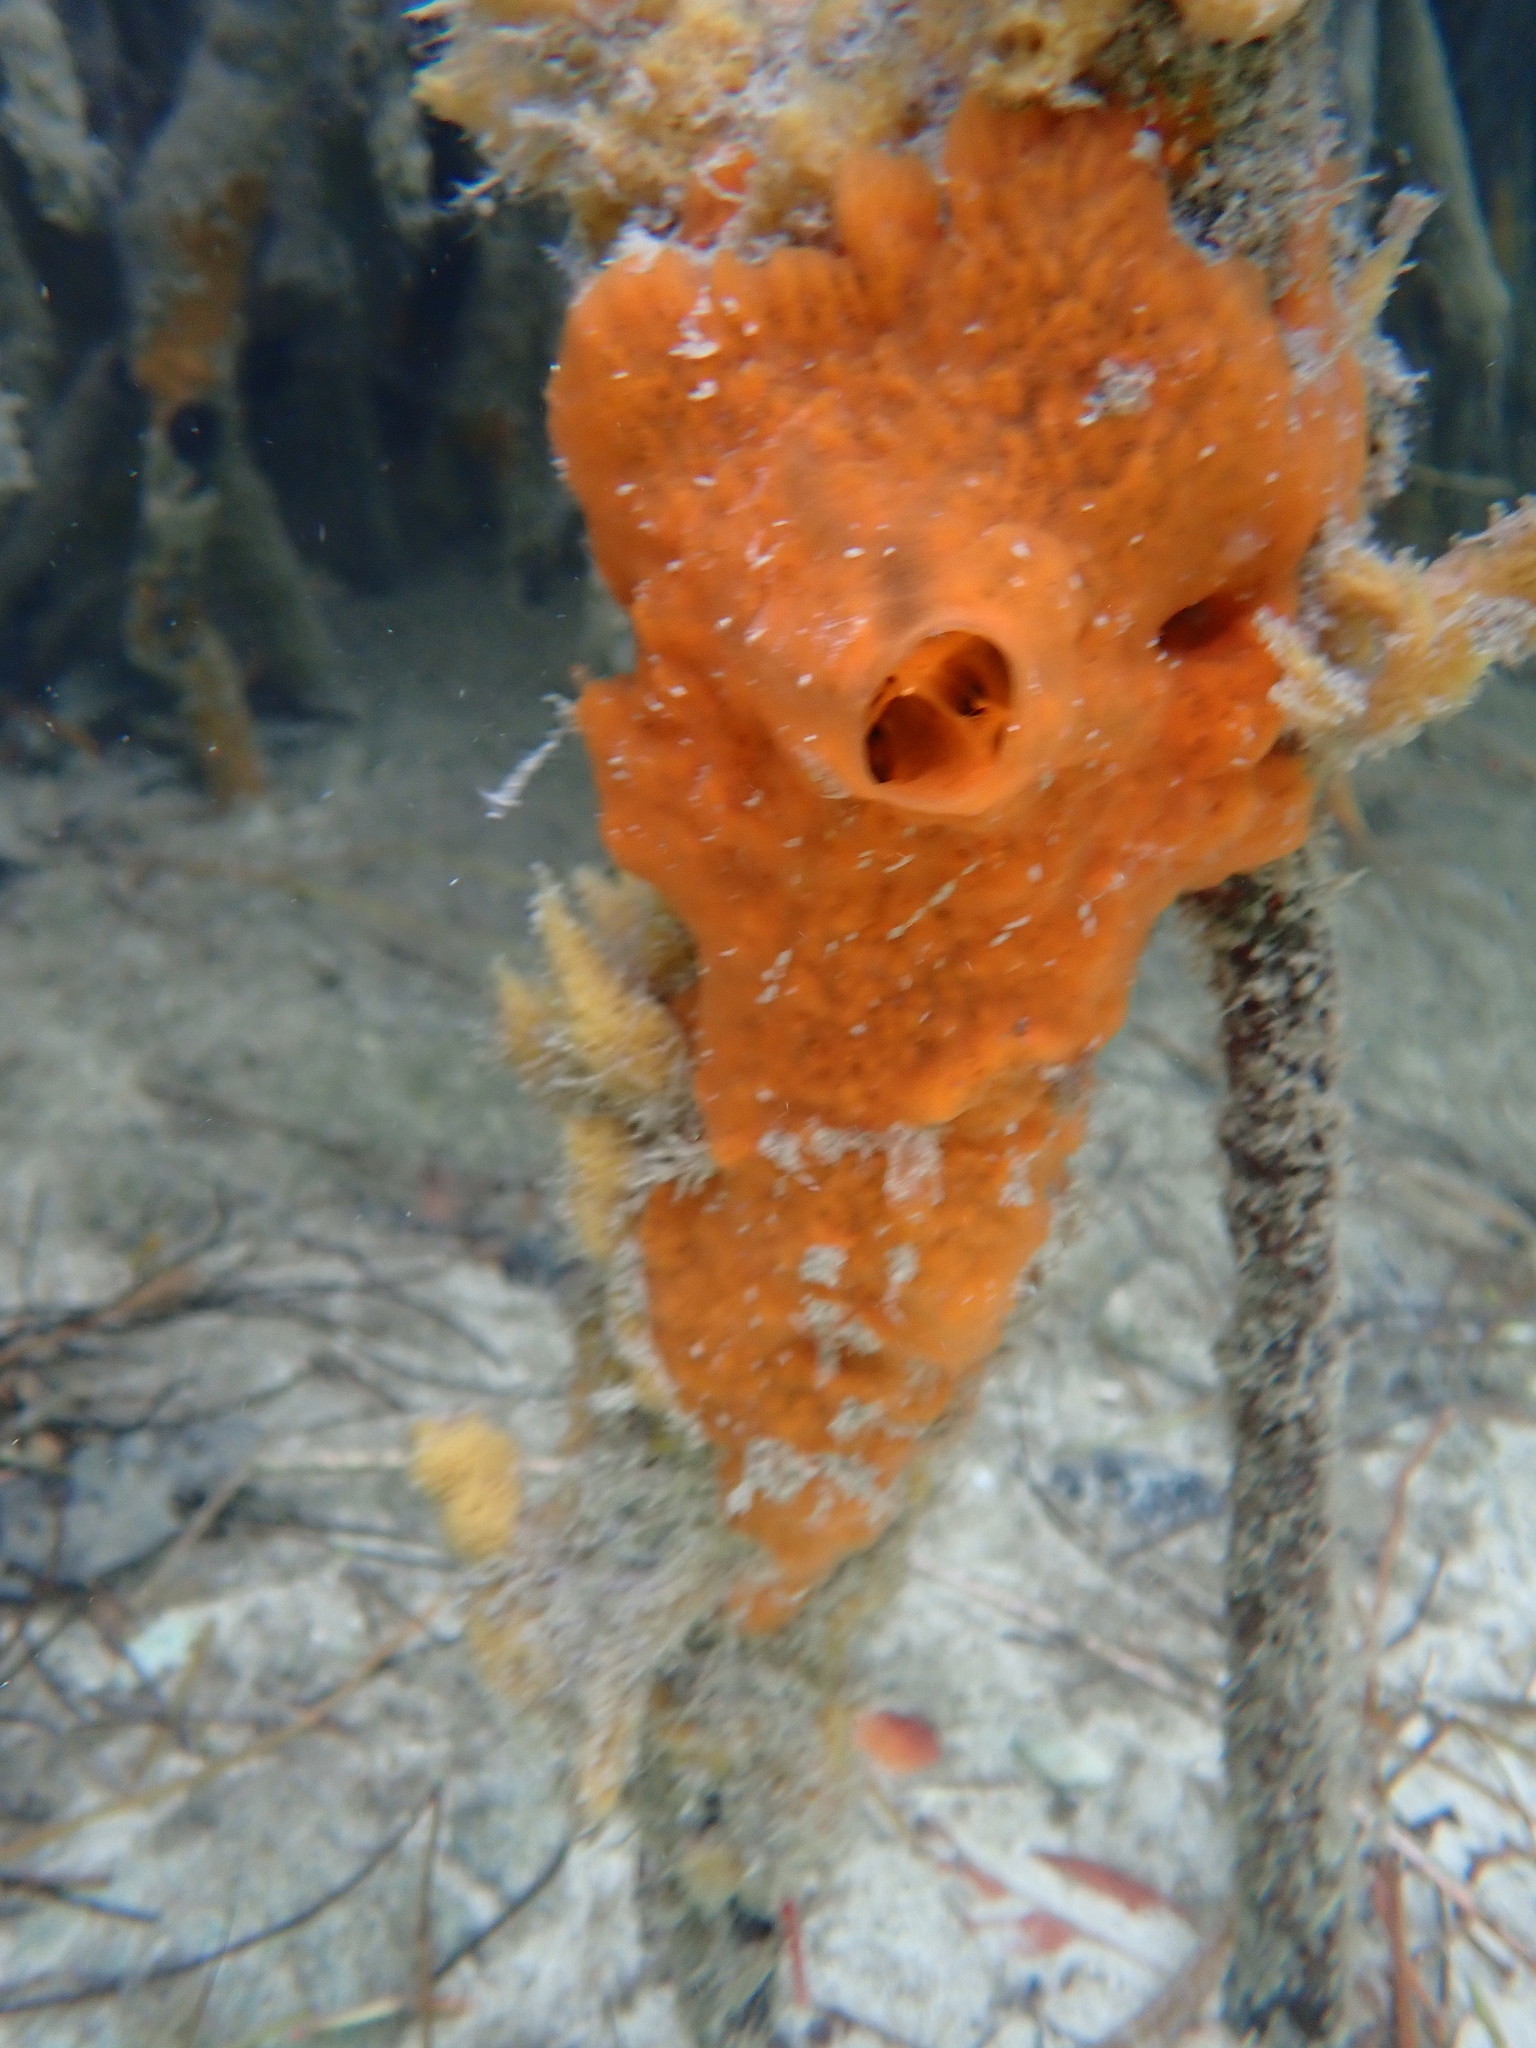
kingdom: Animalia
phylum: Porifera
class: Demospongiae
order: Poecilosclerida
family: Tedaniidae
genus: Tedania
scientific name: Tedania klausi
